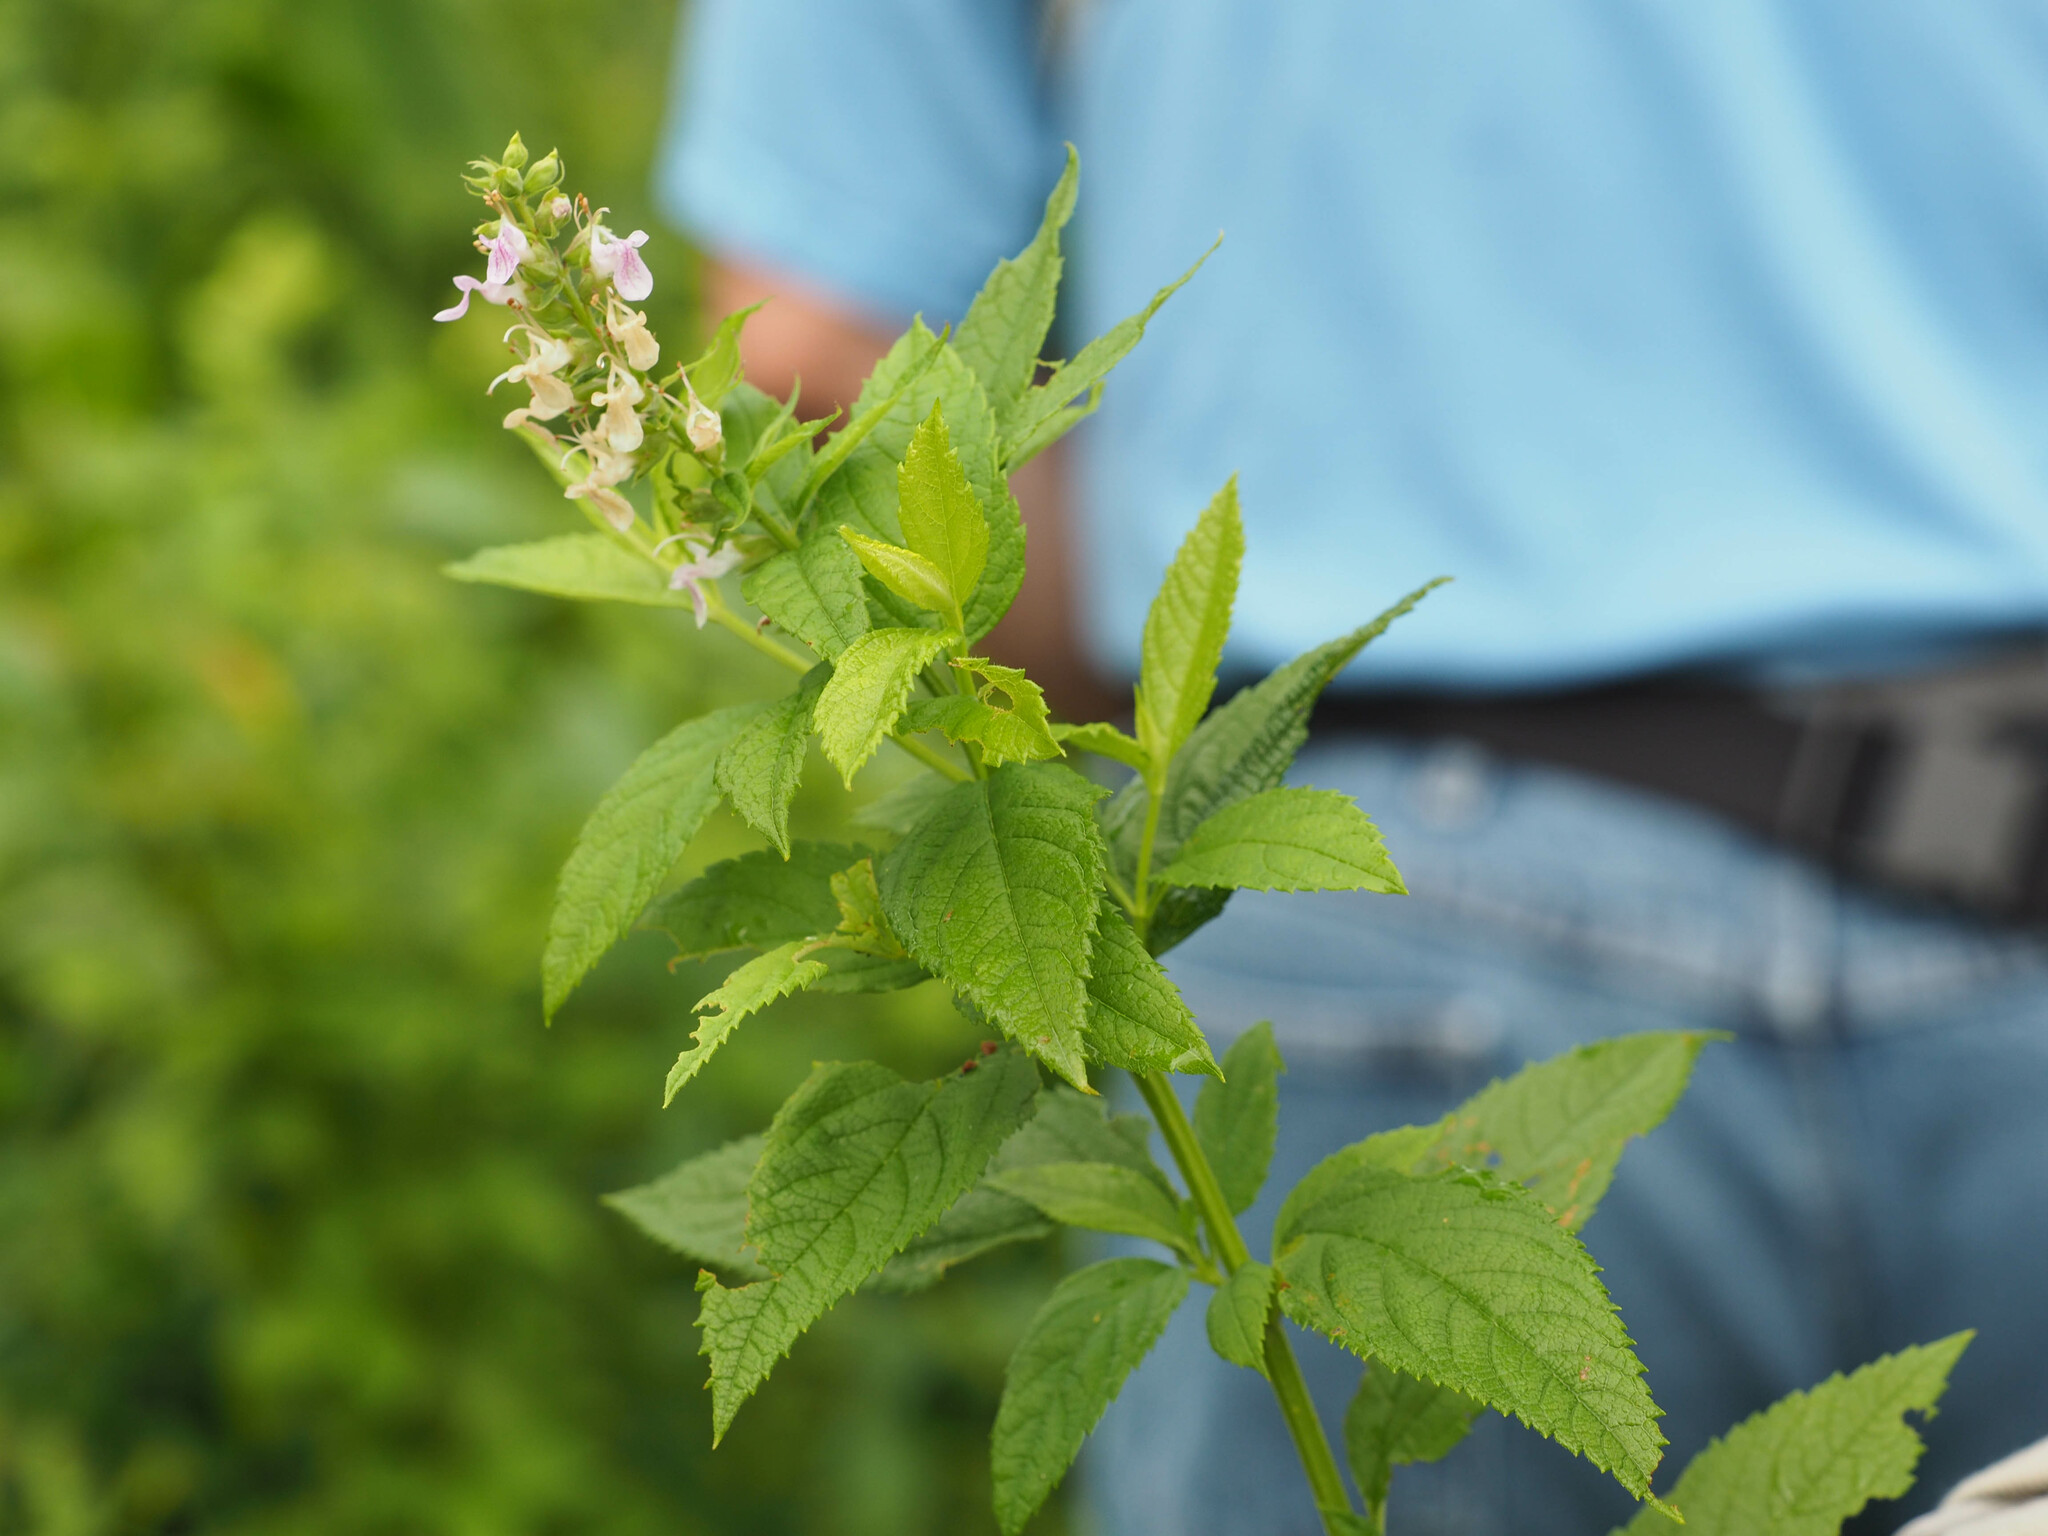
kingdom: Plantae
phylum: Tracheophyta
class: Magnoliopsida
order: Lamiales
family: Lamiaceae
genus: Teucrium
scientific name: Teucrium canadense
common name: American germander
